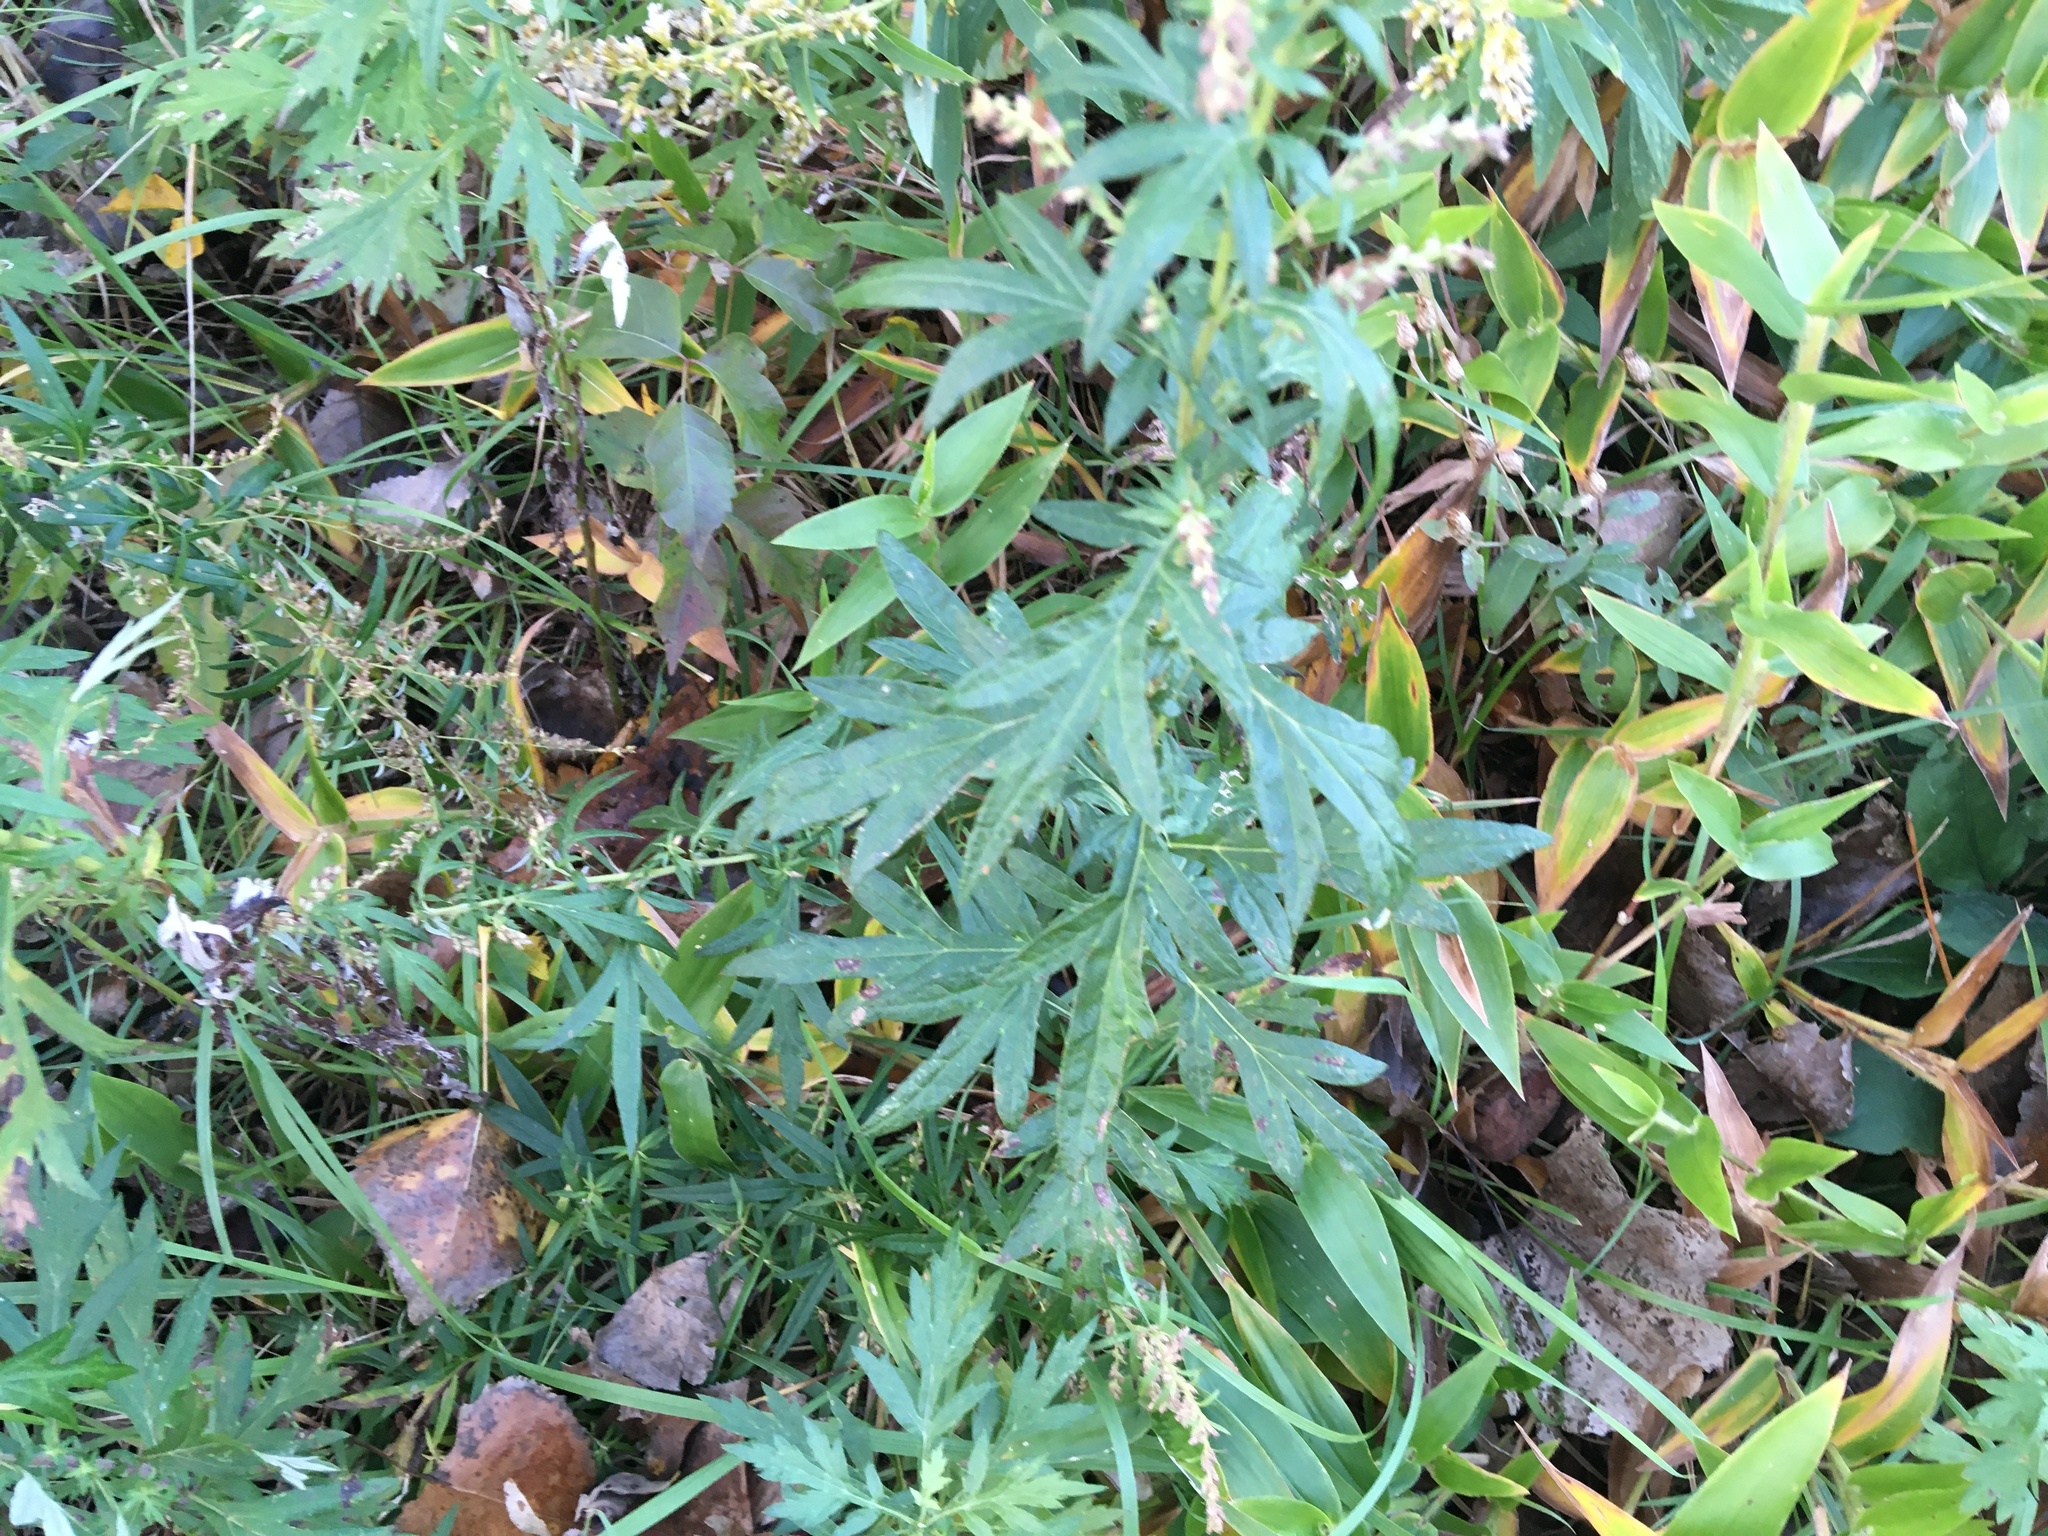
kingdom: Plantae
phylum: Tracheophyta
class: Magnoliopsida
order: Asterales
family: Asteraceae
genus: Artemisia
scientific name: Artemisia vulgaris
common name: Mugwort
